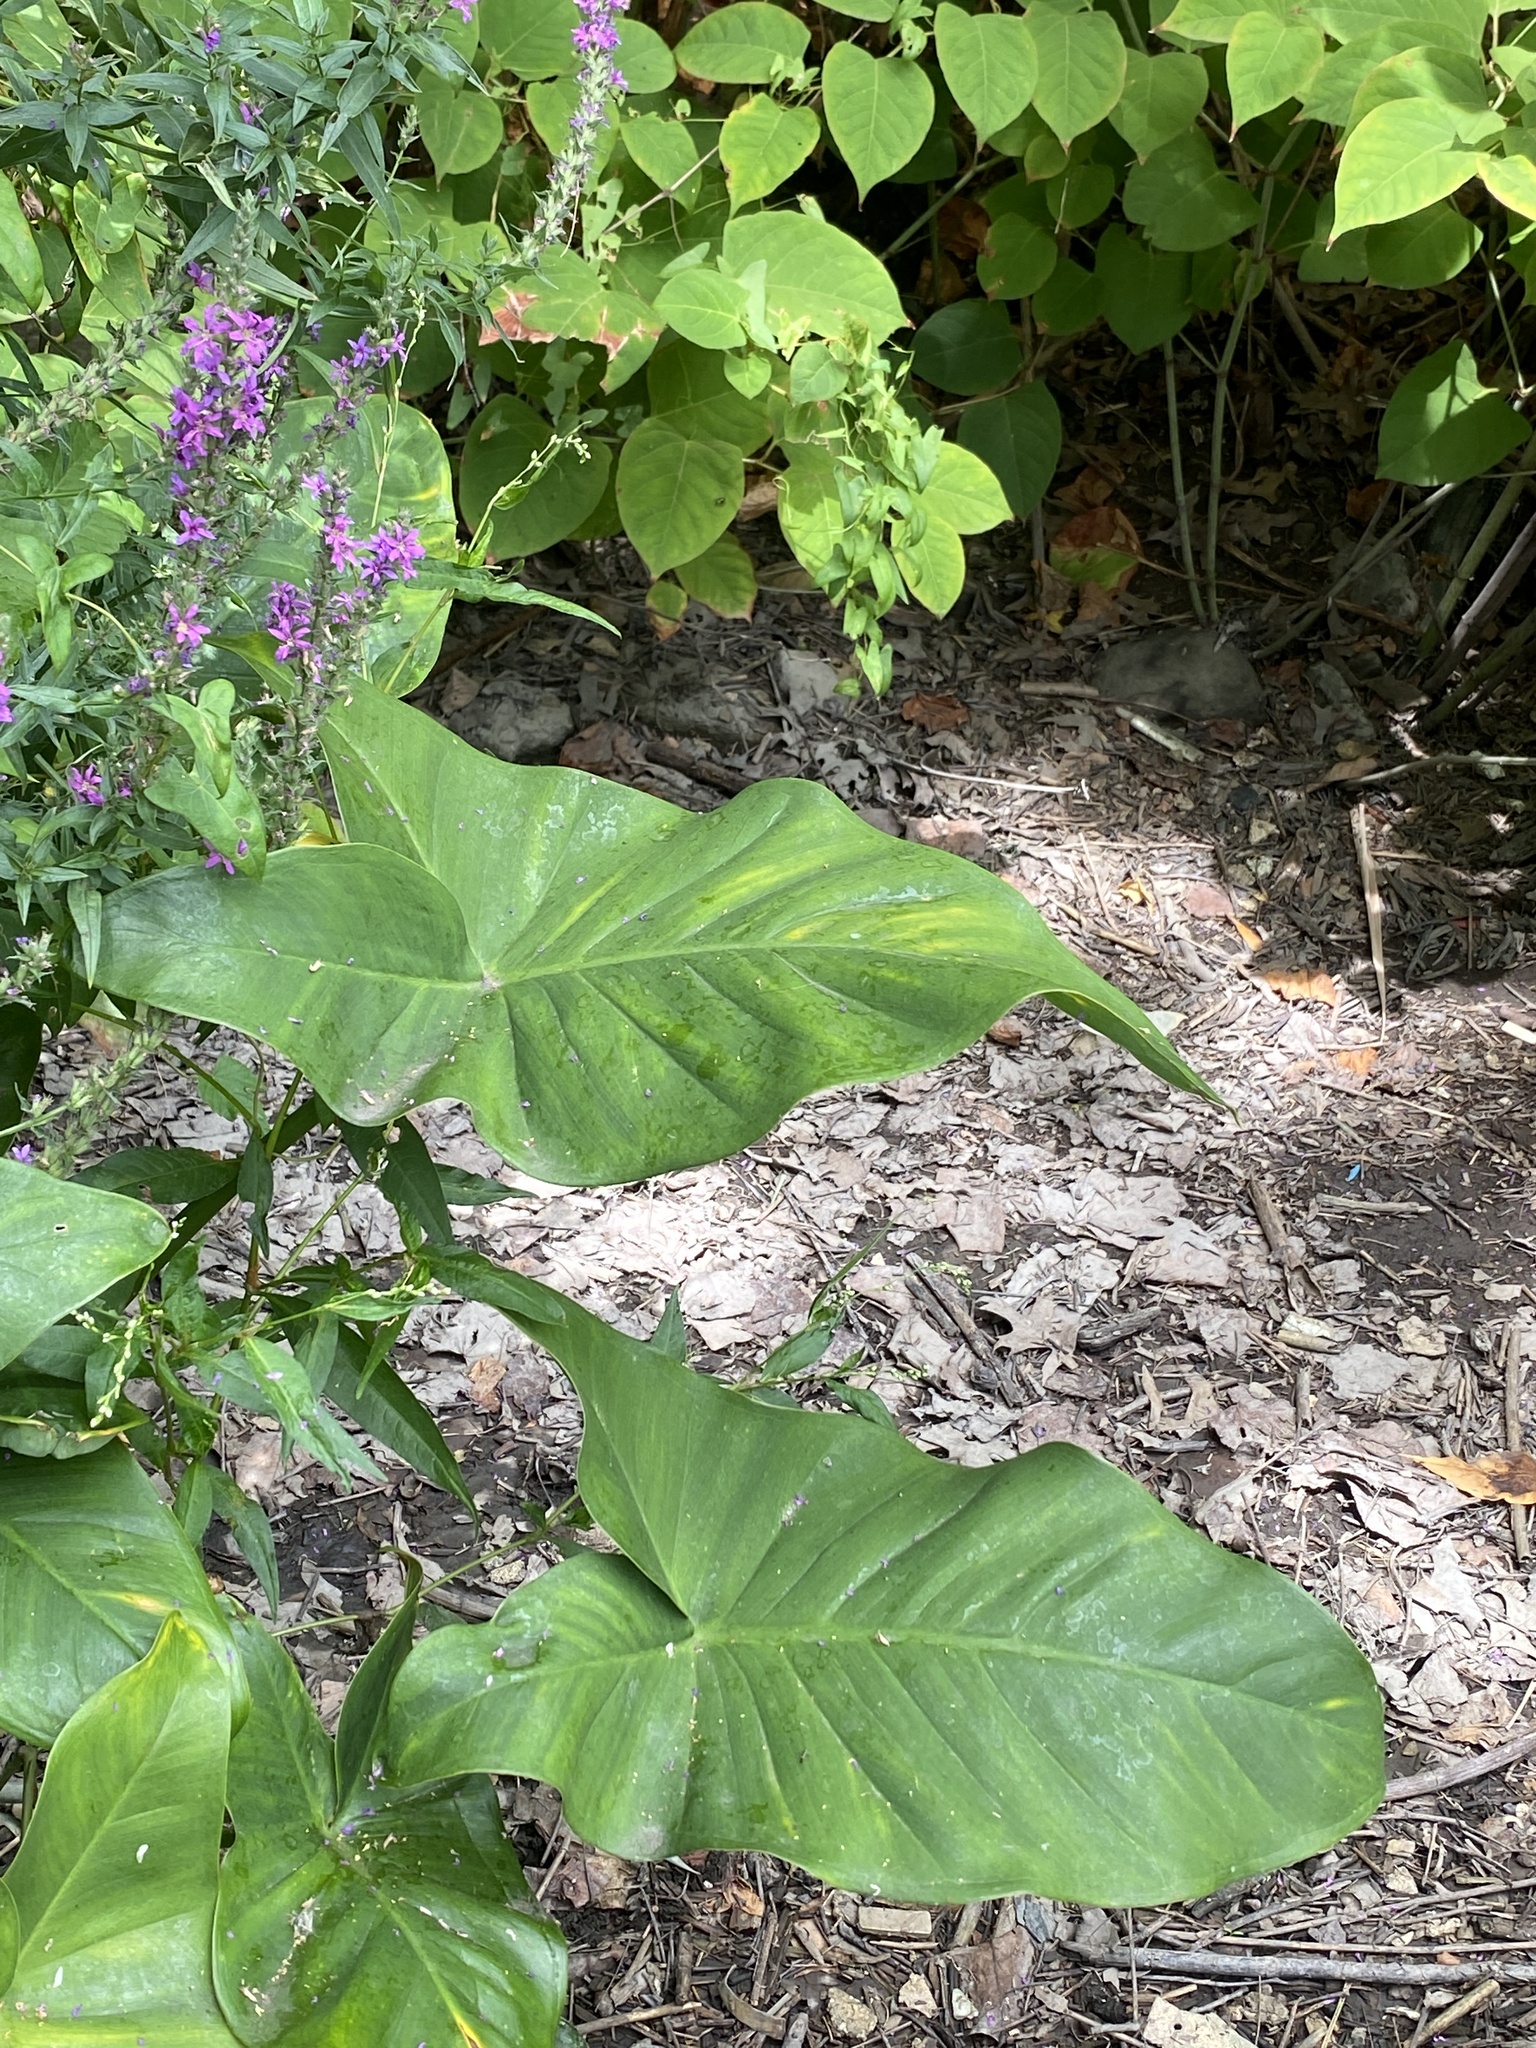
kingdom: Plantae
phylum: Tracheophyta
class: Liliopsida
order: Alismatales
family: Araceae
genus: Peltandra
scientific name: Peltandra virginica
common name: Arrow arum
